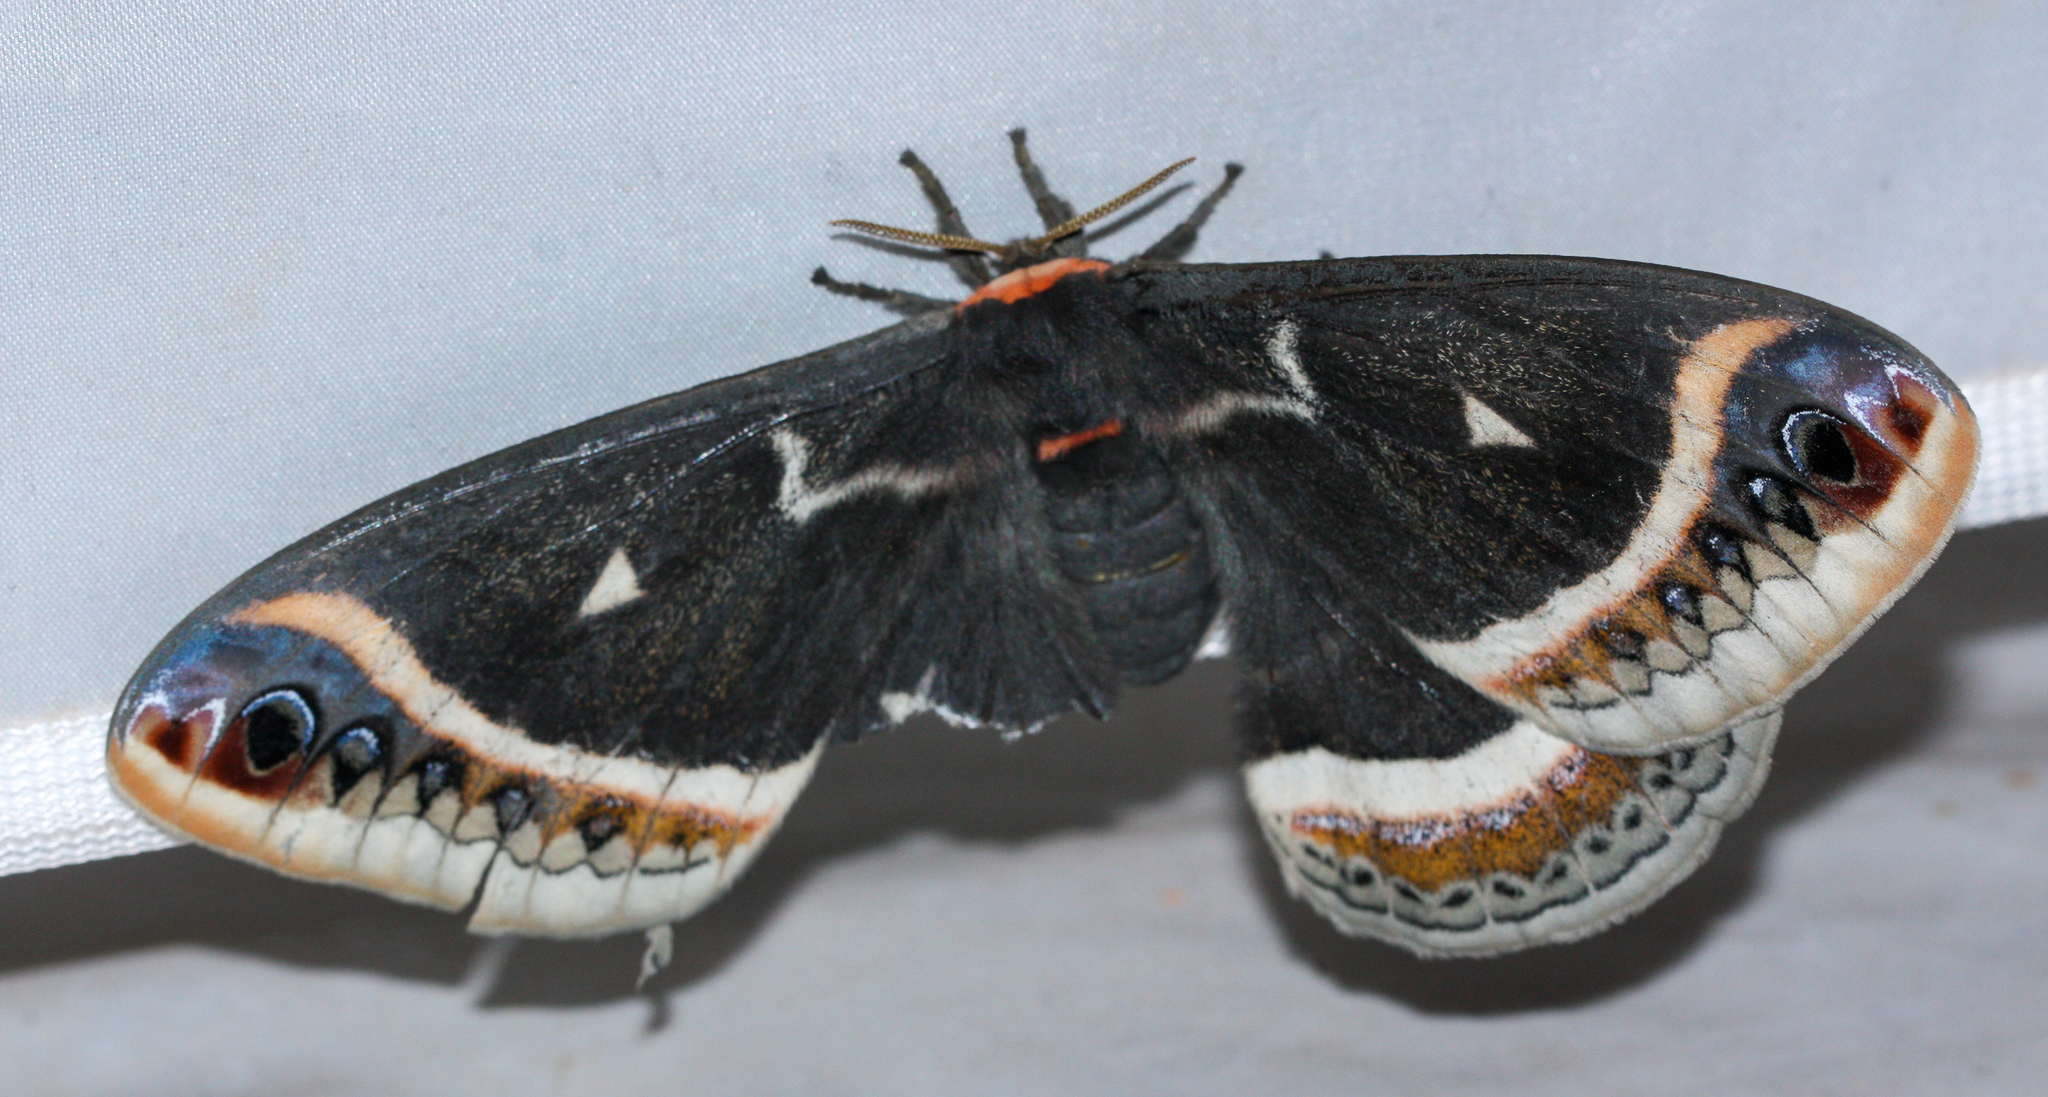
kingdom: Animalia
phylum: Arthropoda
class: Insecta
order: Lepidoptera
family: Saturniidae
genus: Eupackardia
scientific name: Eupackardia calleta
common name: Calleta silkmoth
